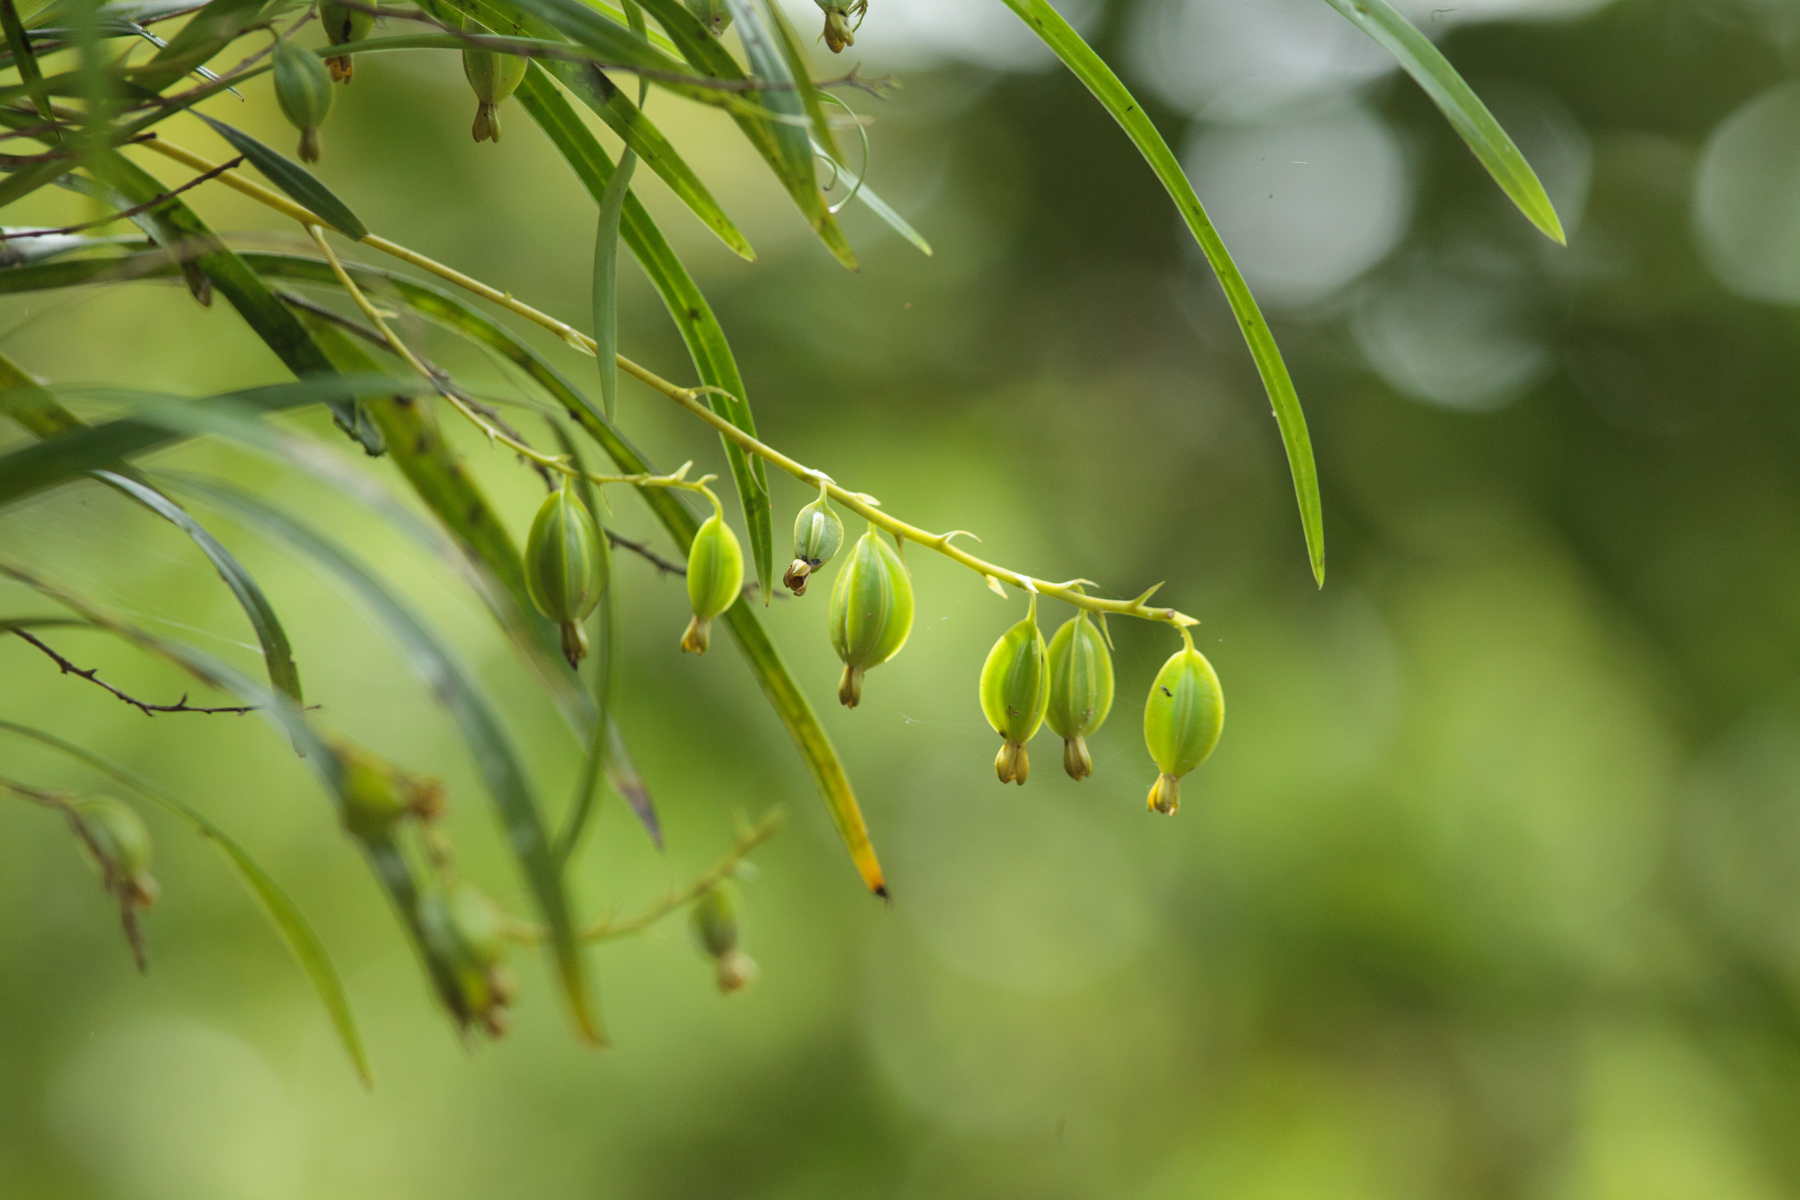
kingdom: Plantae
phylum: Tracheophyta
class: Liliopsida
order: Asparagales
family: Orchidaceae
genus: Prosthechea
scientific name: Prosthechea ochracea
